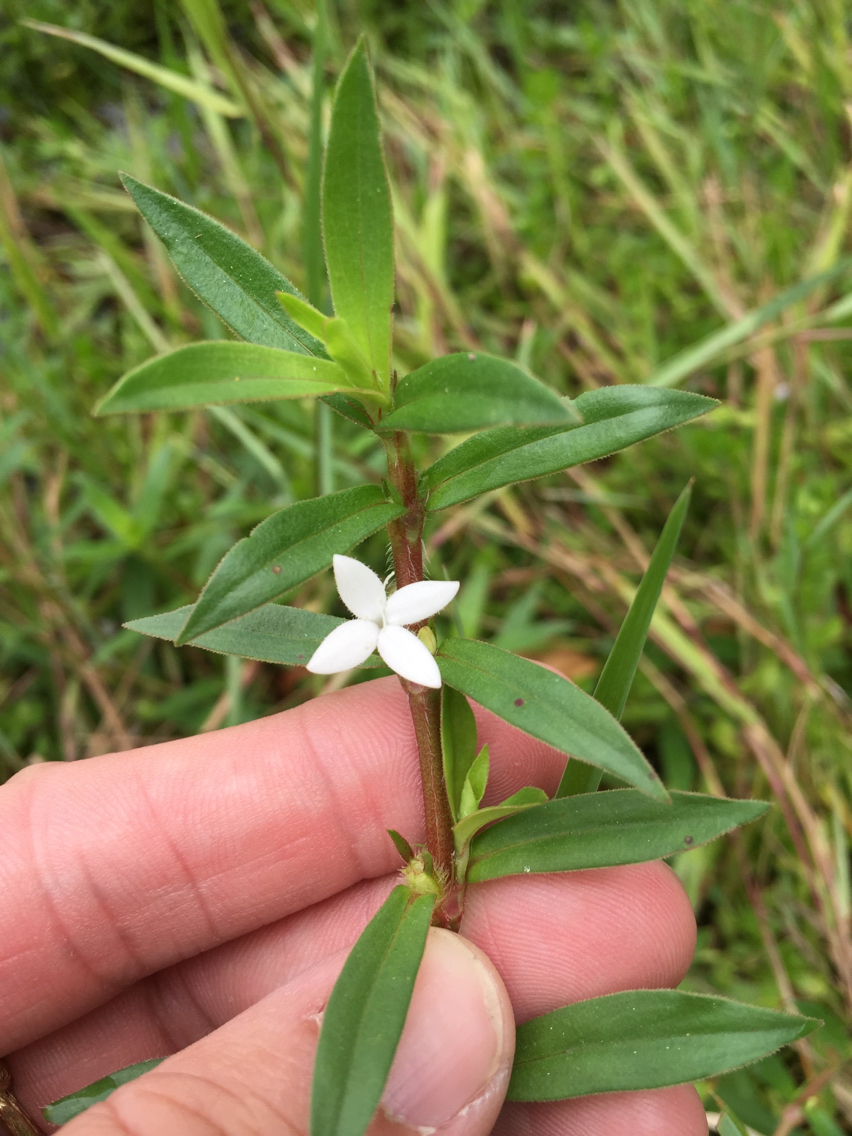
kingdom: Plantae
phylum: Tracheophyta
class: Magnoliopsida
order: Gentianales
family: Rubiaceae
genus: Diodia
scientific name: Diodia virginiana
